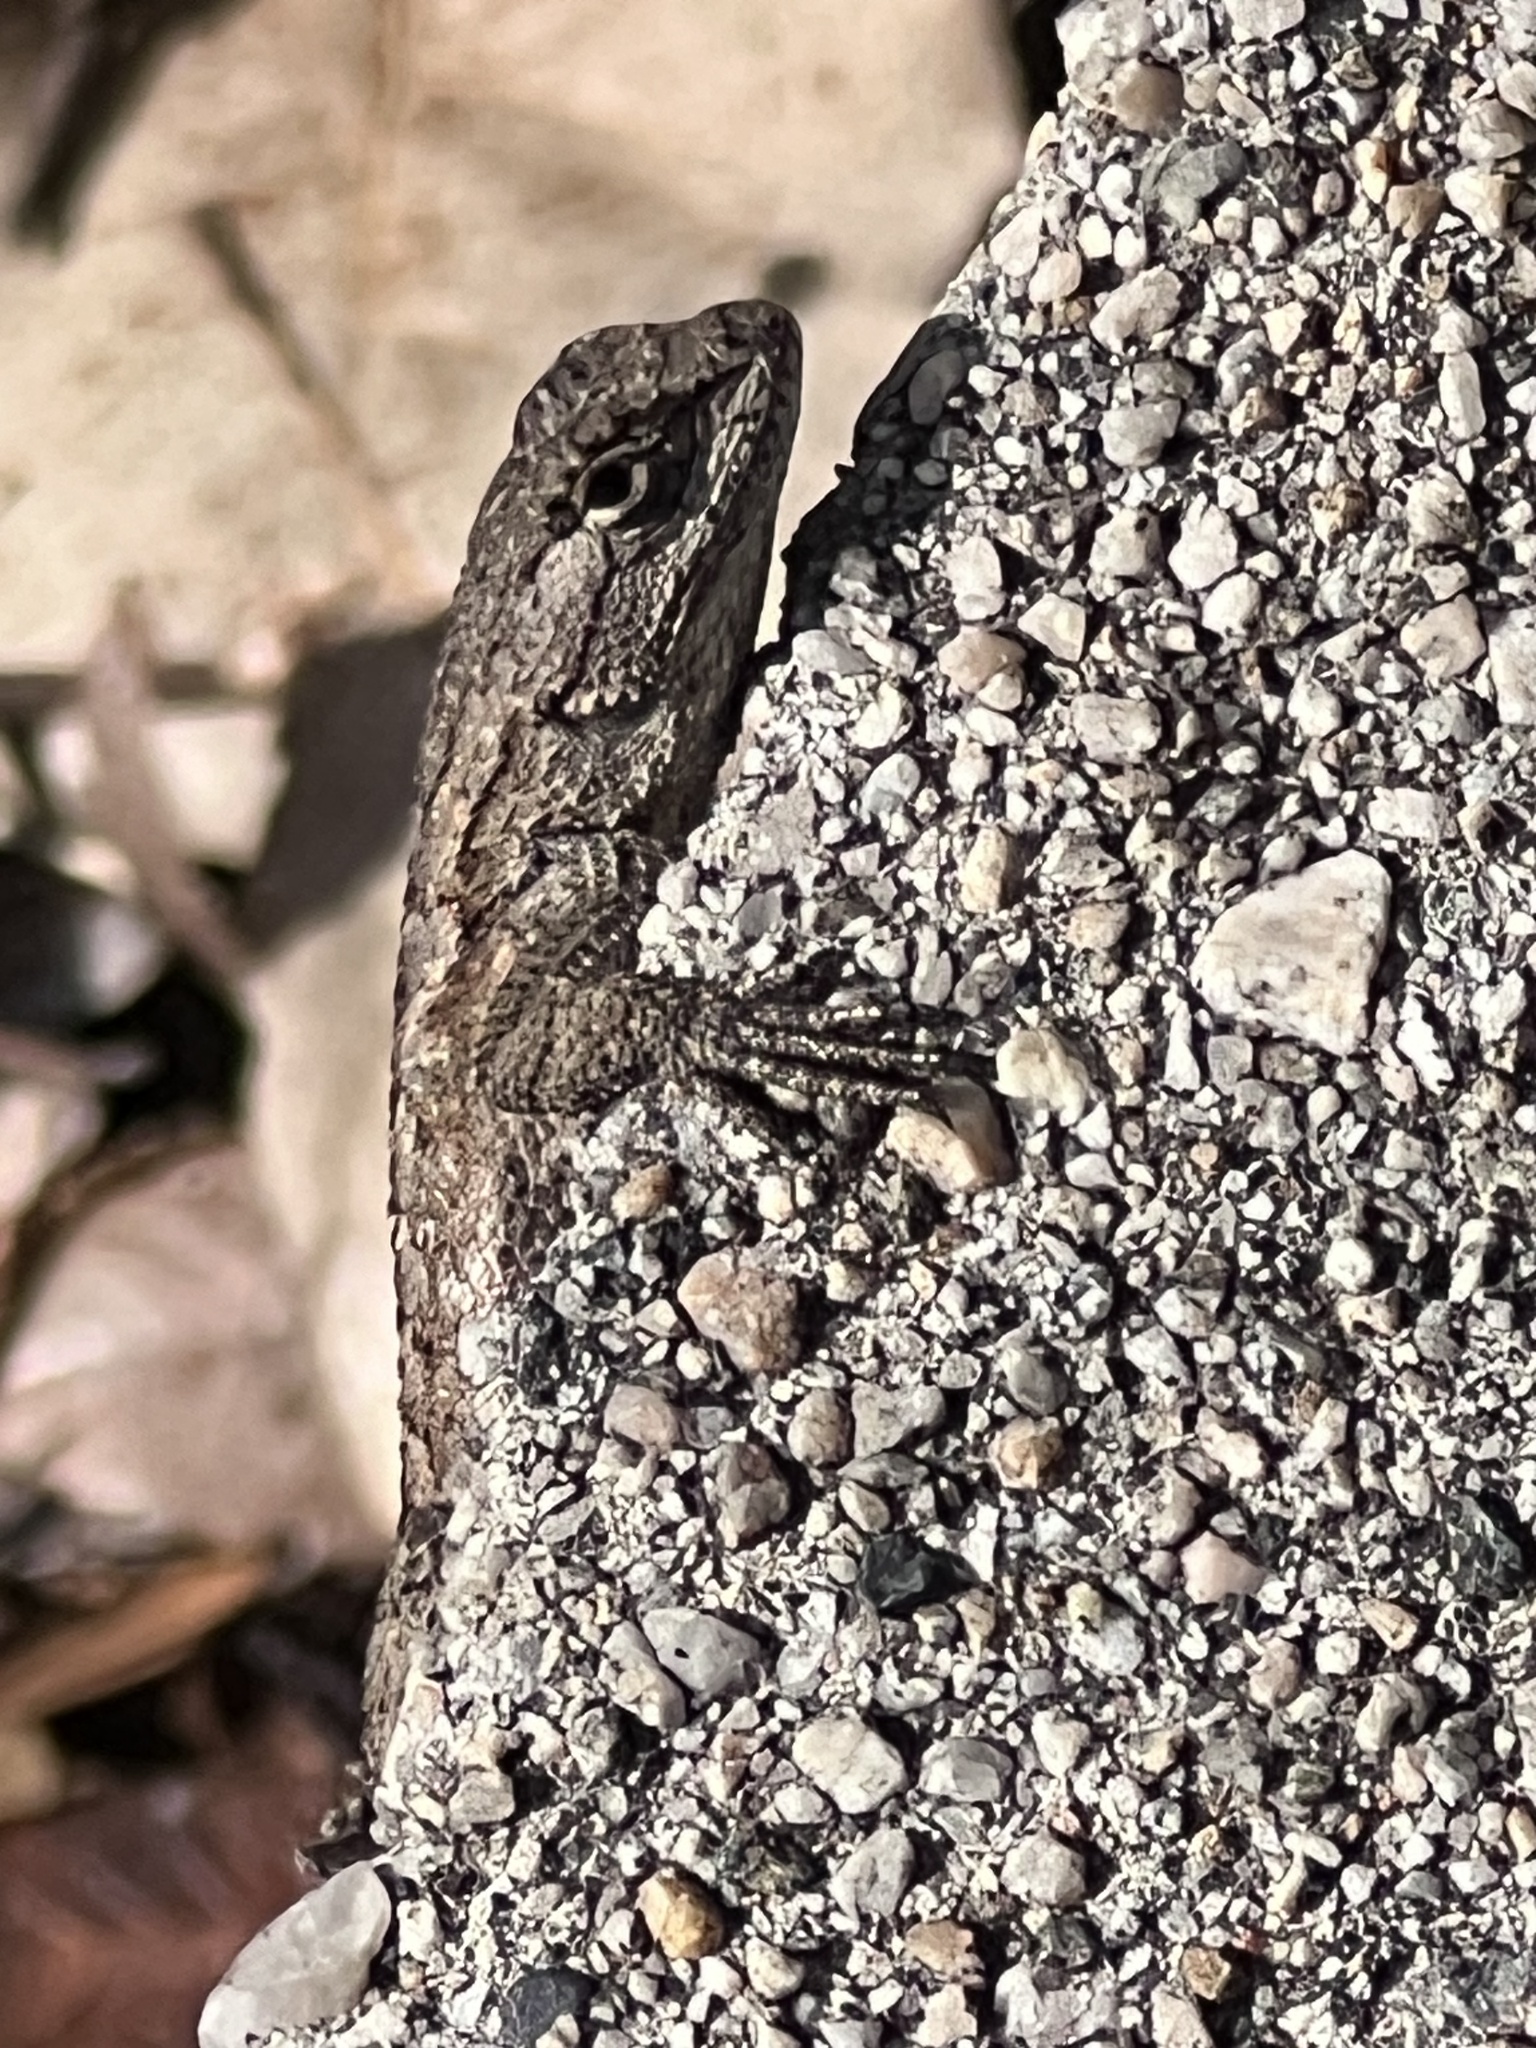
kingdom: Animalia
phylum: Chordata
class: Squamata
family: Phrynosomatidae
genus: Sceloporus
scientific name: Sceloporus occidentalis
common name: Western fence lizard
